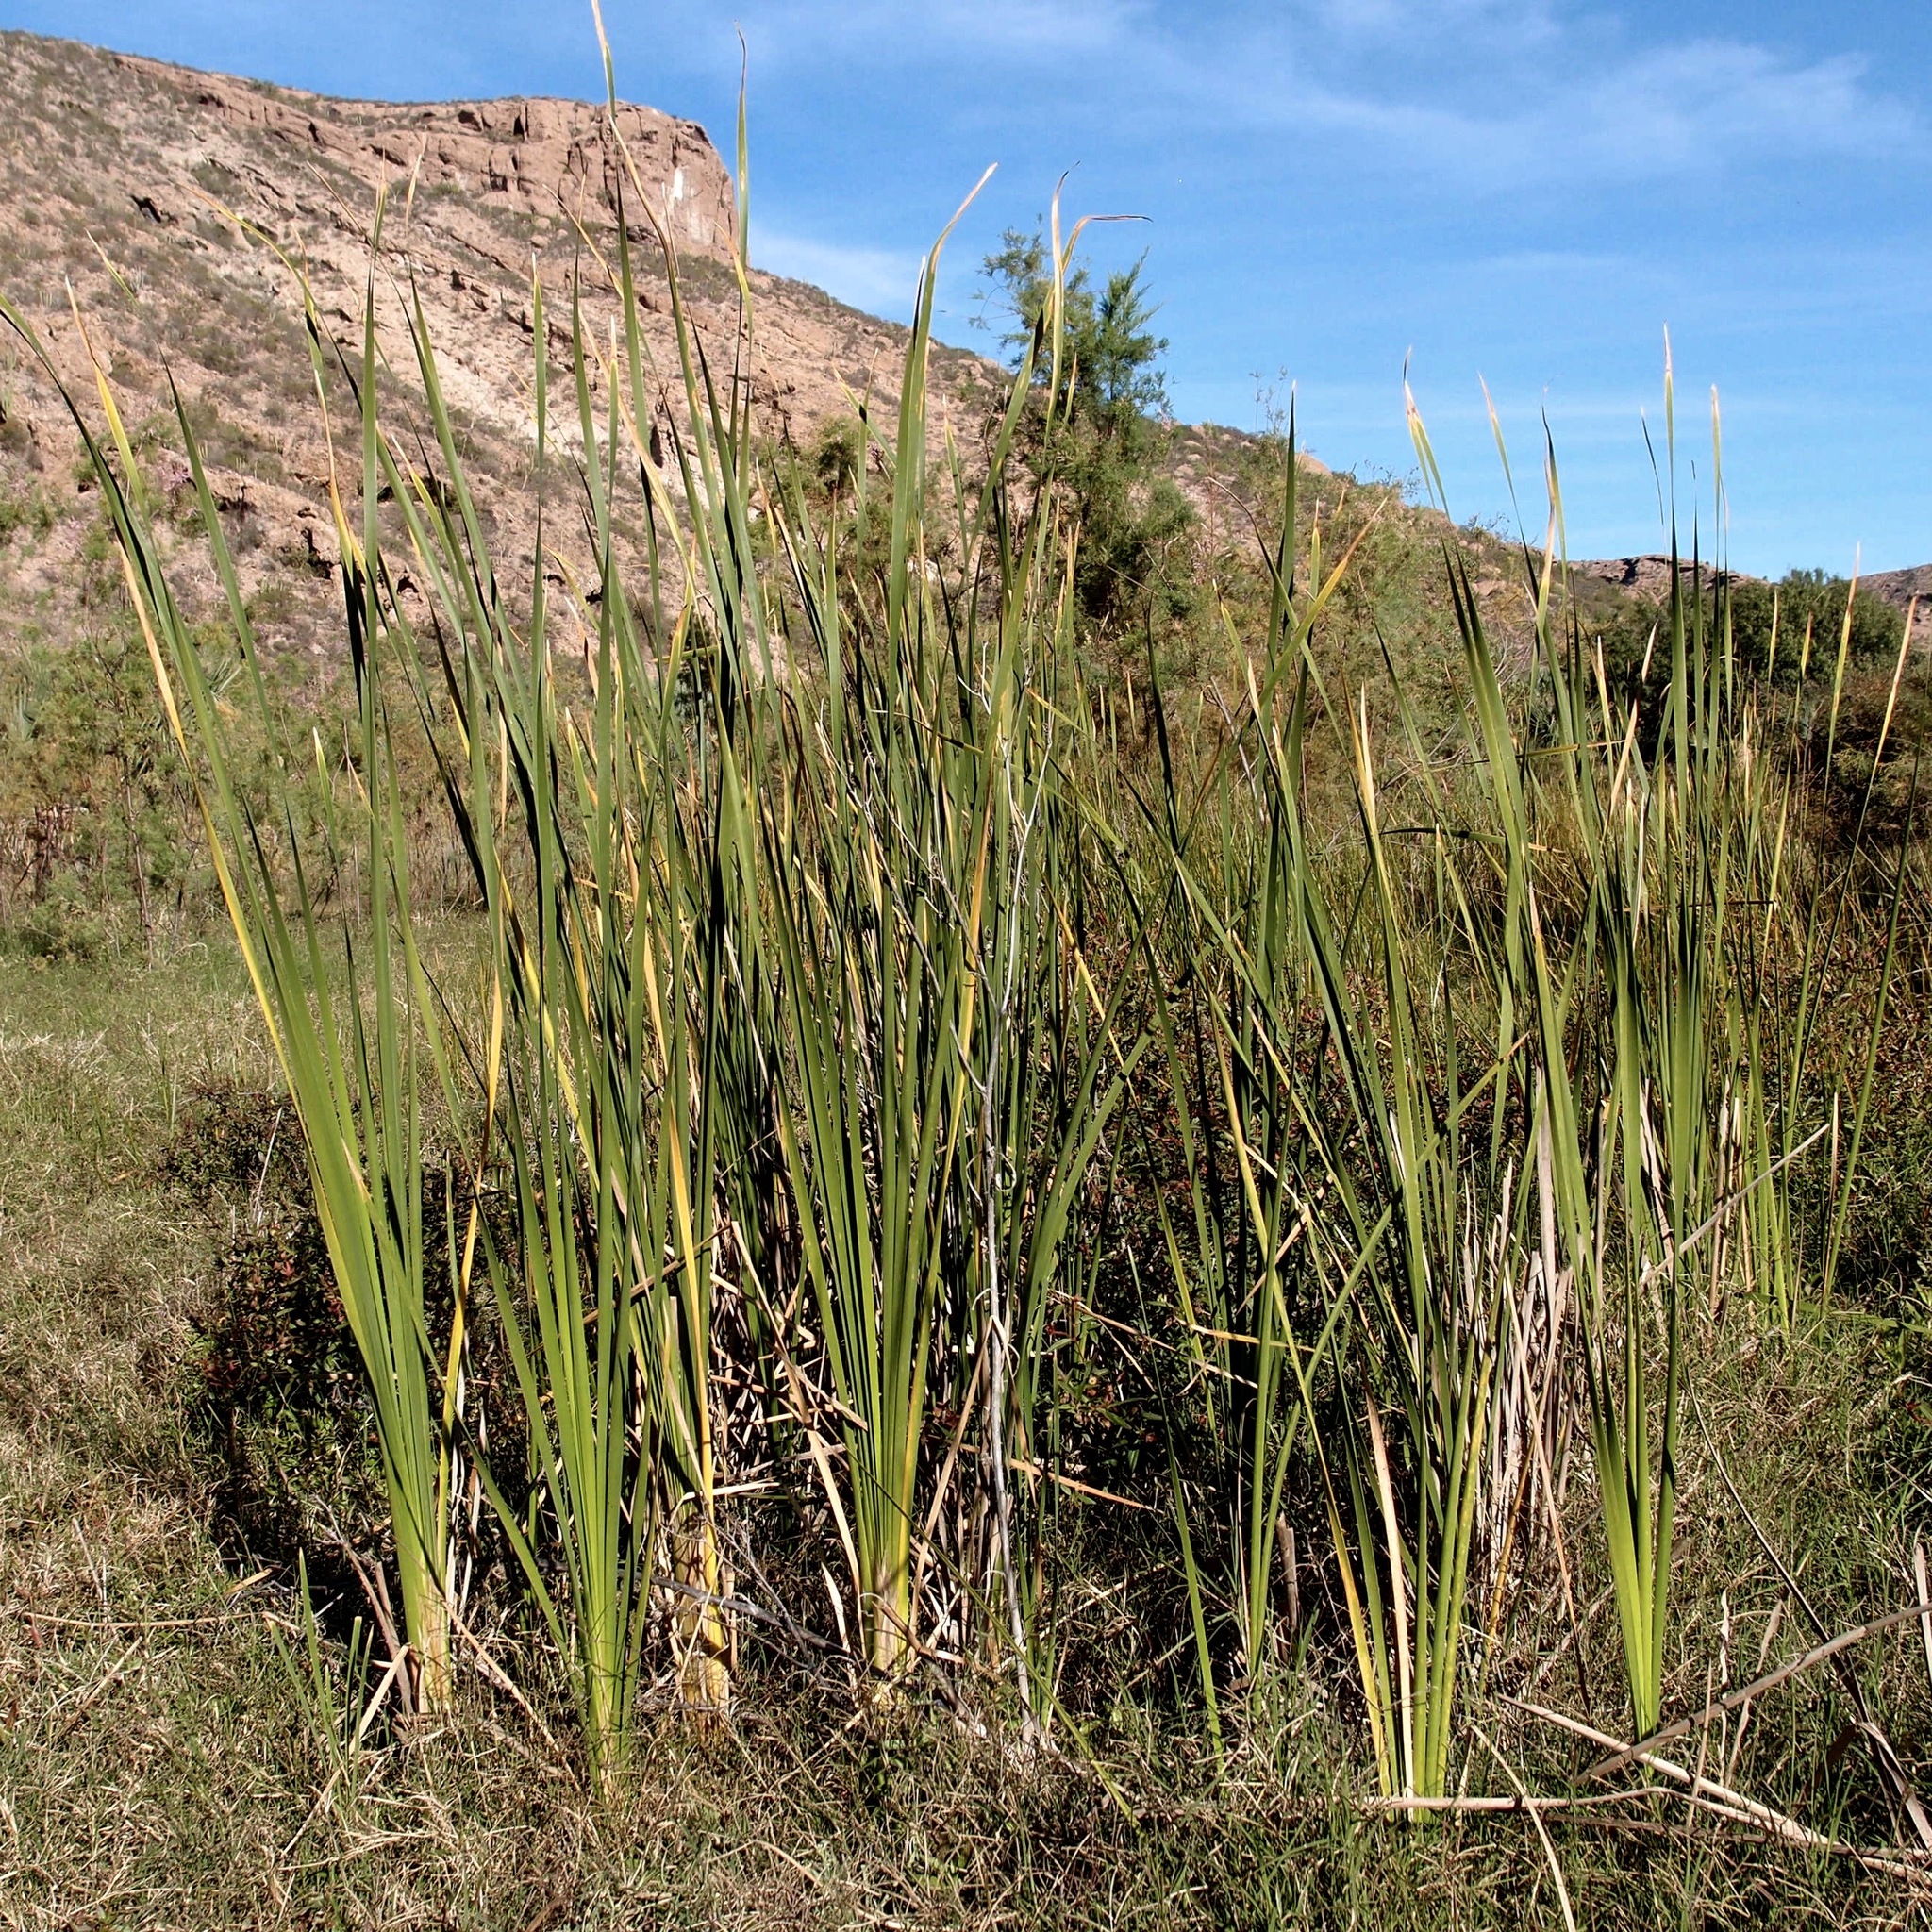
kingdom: Plantae
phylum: Tracheophyta
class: Liliopsida
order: Poales
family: Typhaceae
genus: Typha
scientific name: Typha domingensis
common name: Southern cattail
